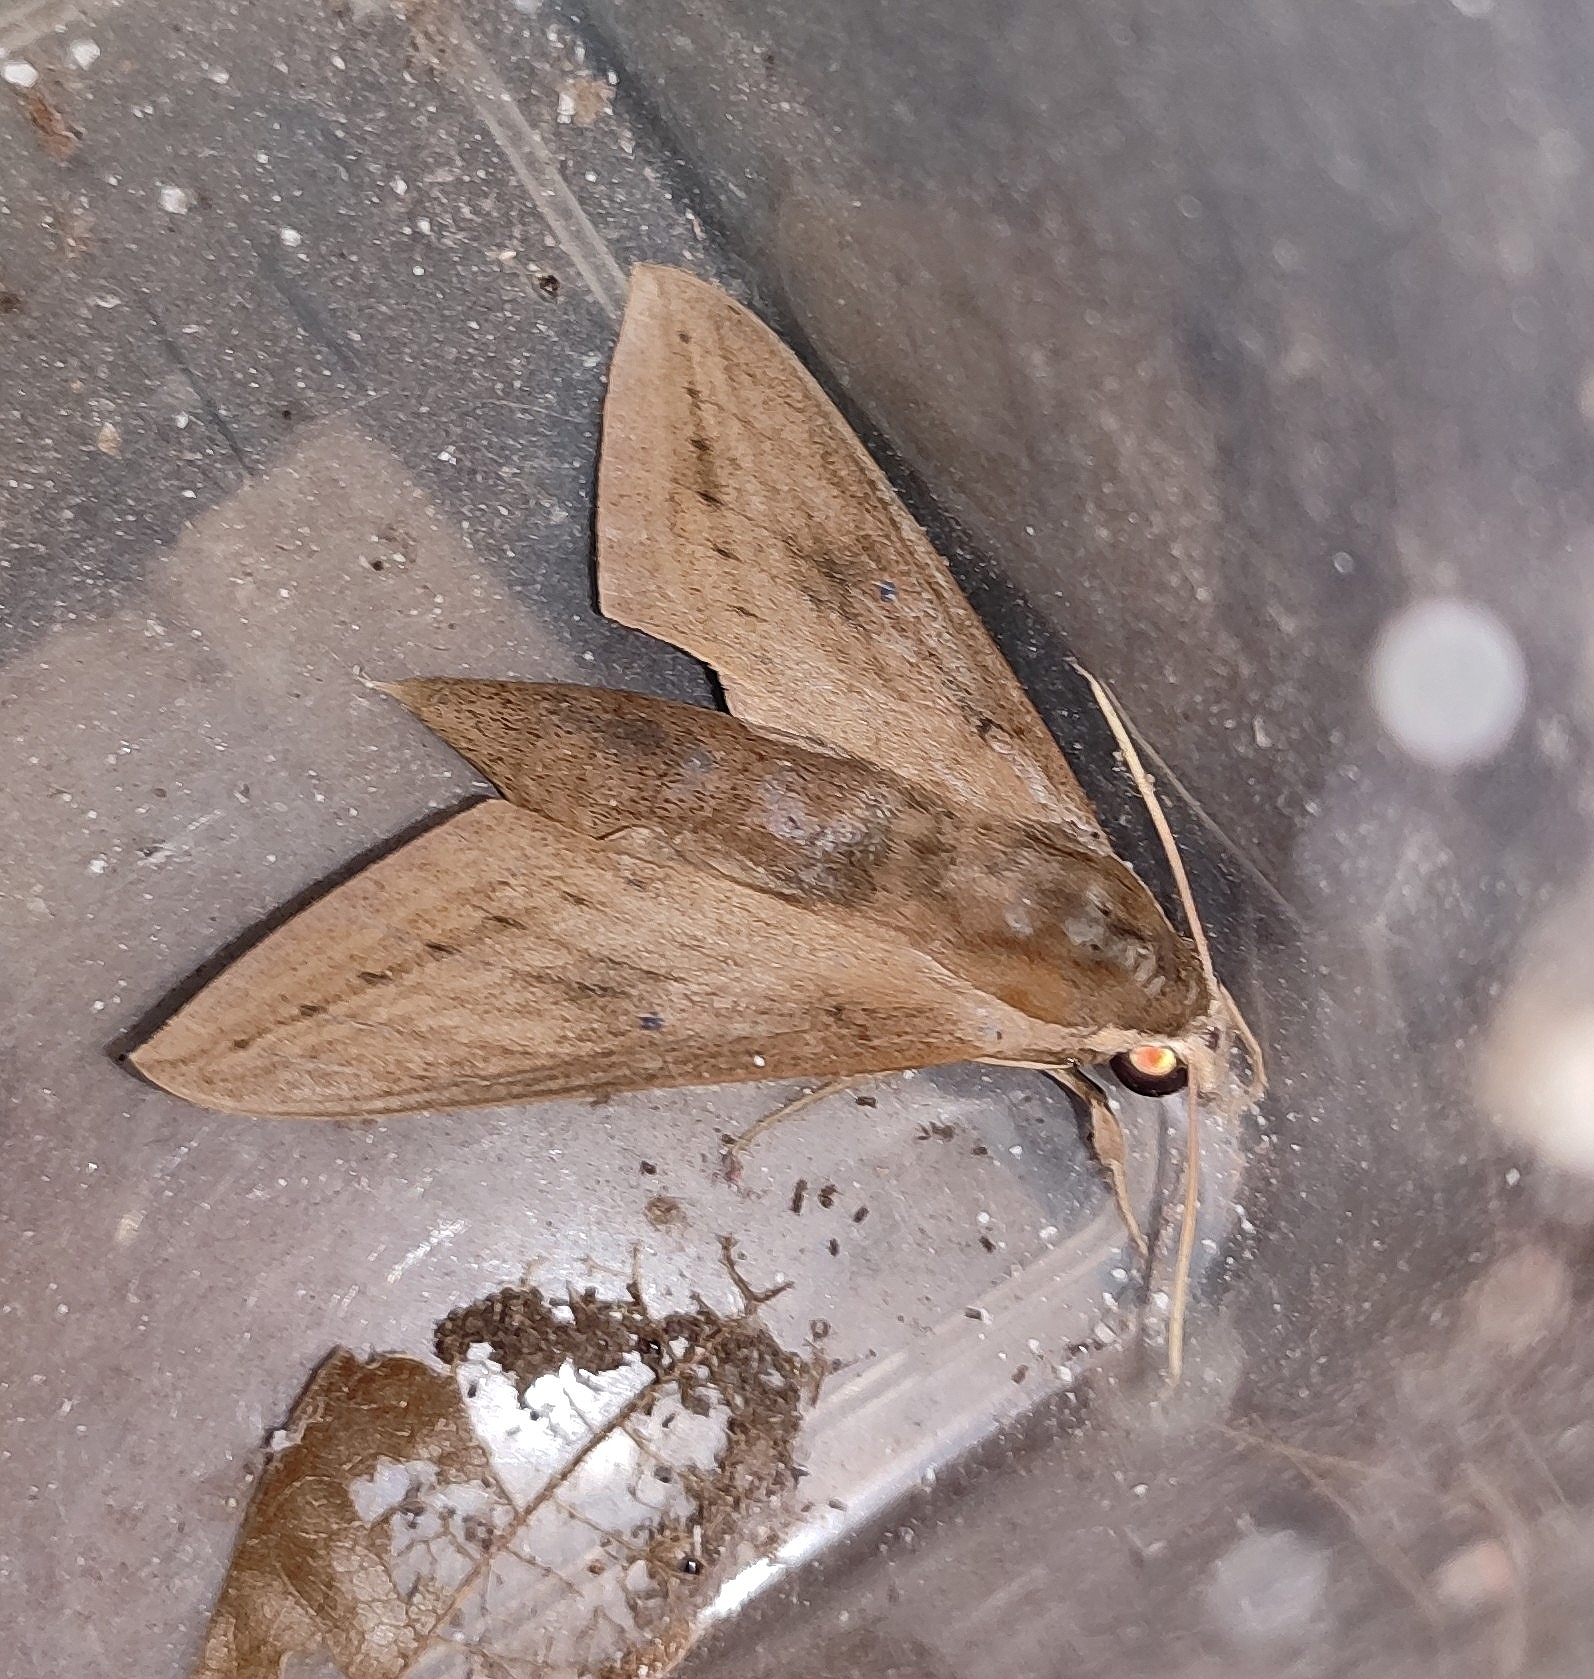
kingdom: Animalia
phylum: Arthropoda
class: Insecta
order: Lepidoptera
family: Sphingidae
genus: Theretra
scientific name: Theretra rhesus
